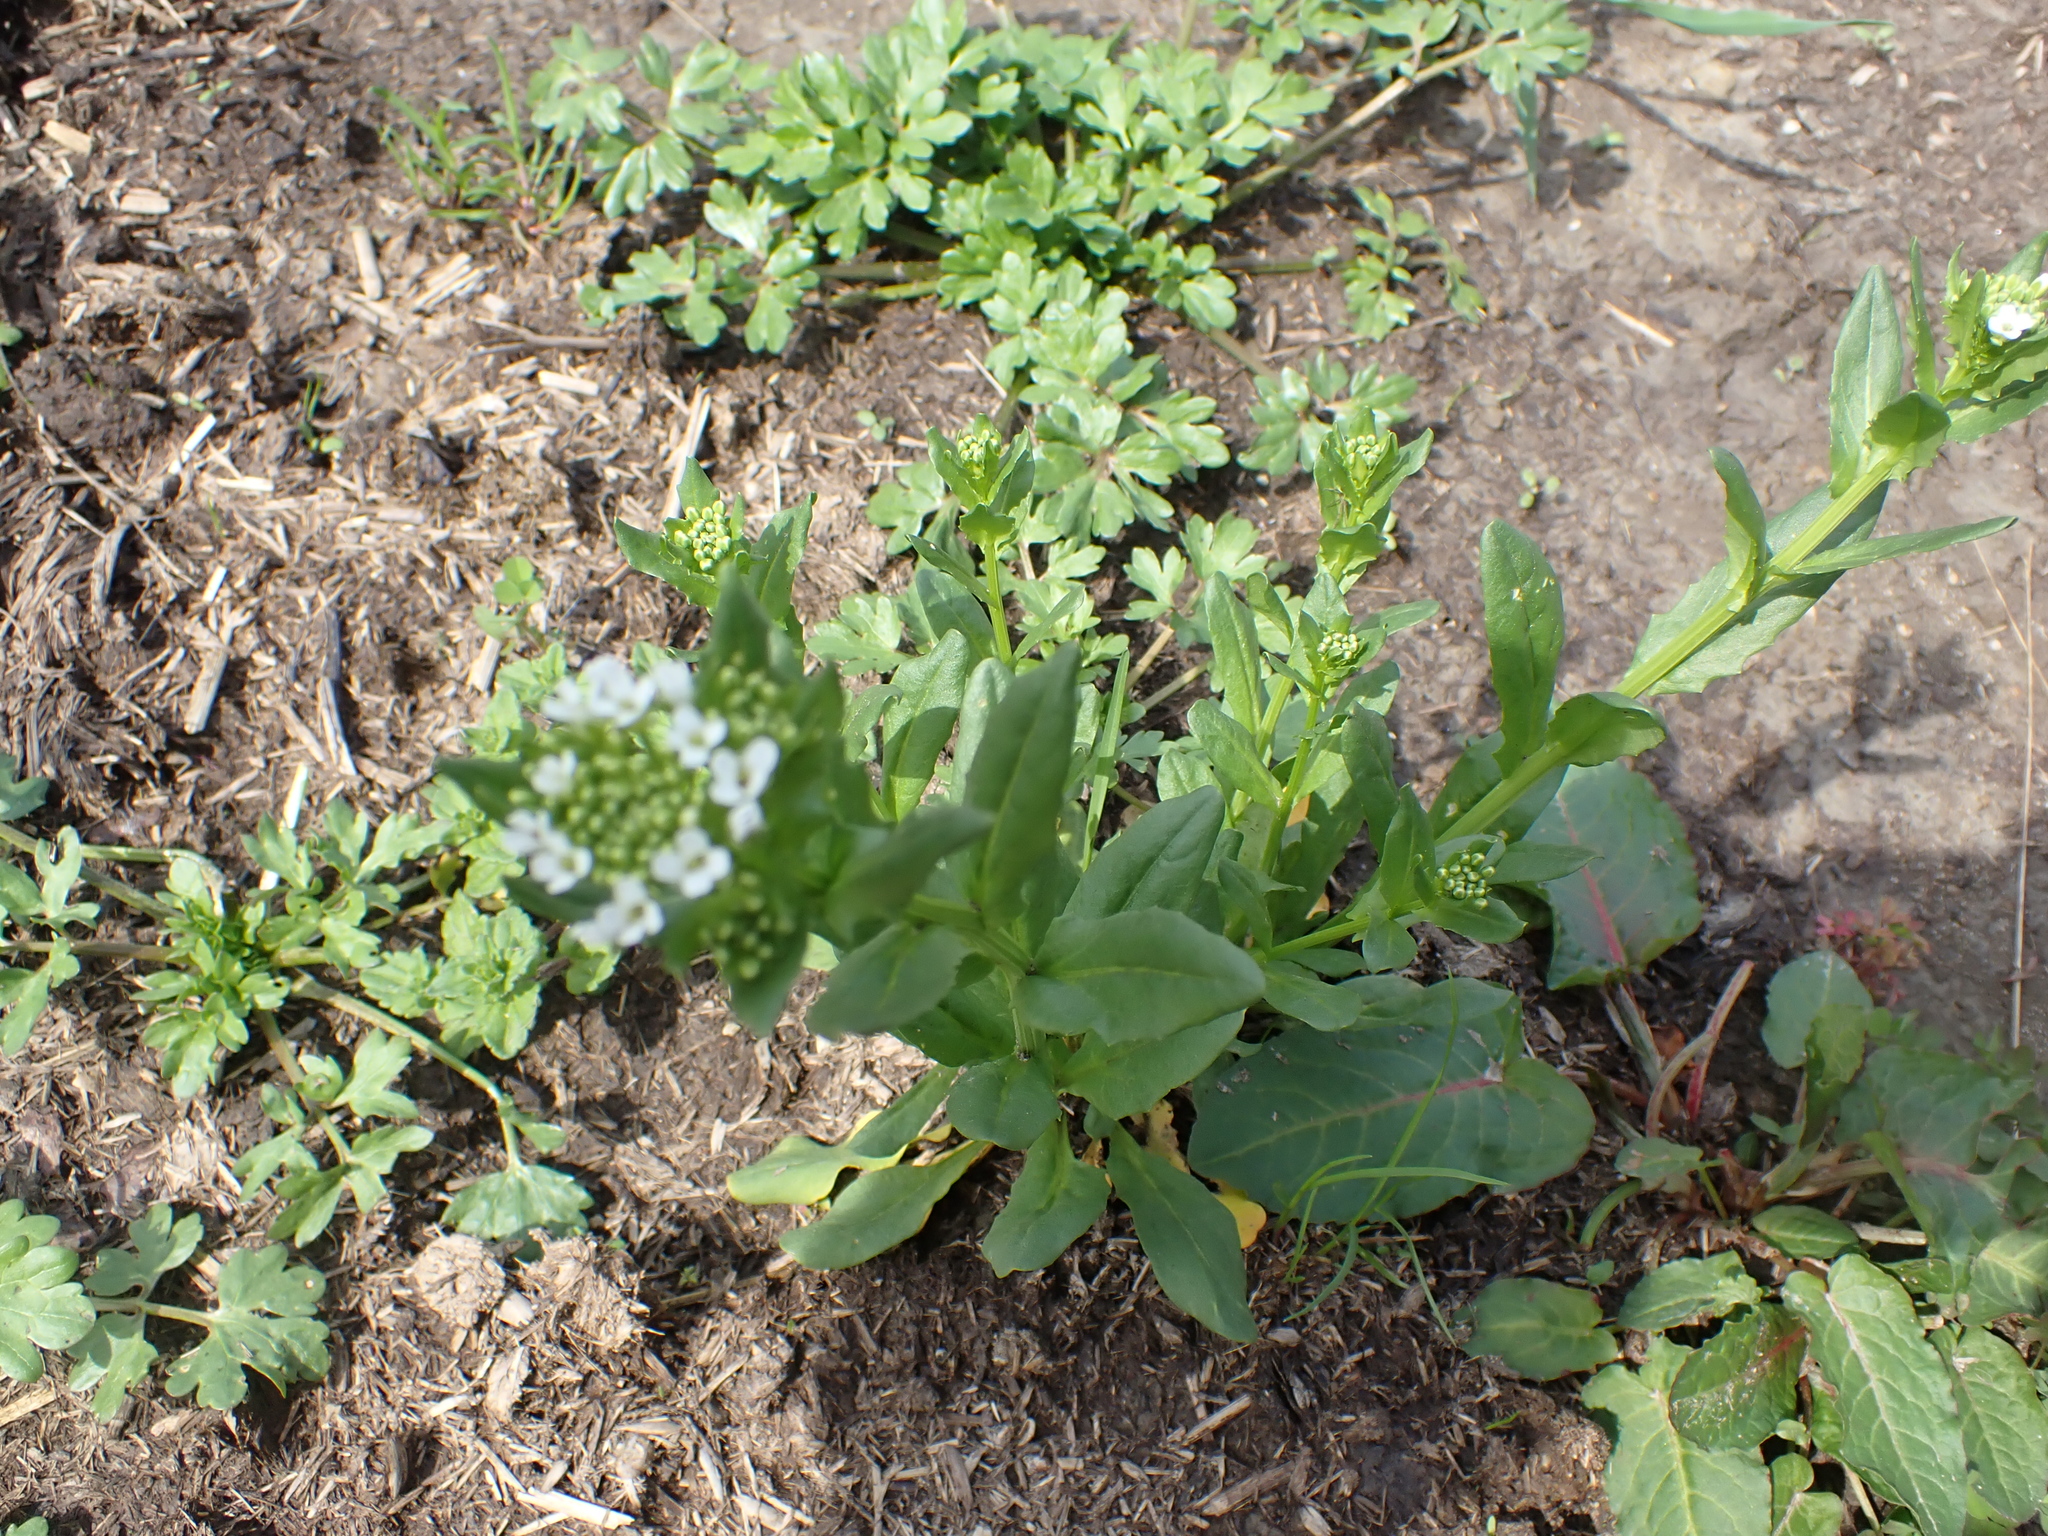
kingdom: Plantae
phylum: Tracheophyta
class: Magnoliopsida
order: Brassicales
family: Brassicaceae
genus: Thlaspi
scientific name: Thlaspi arvense
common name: Field pennycress
